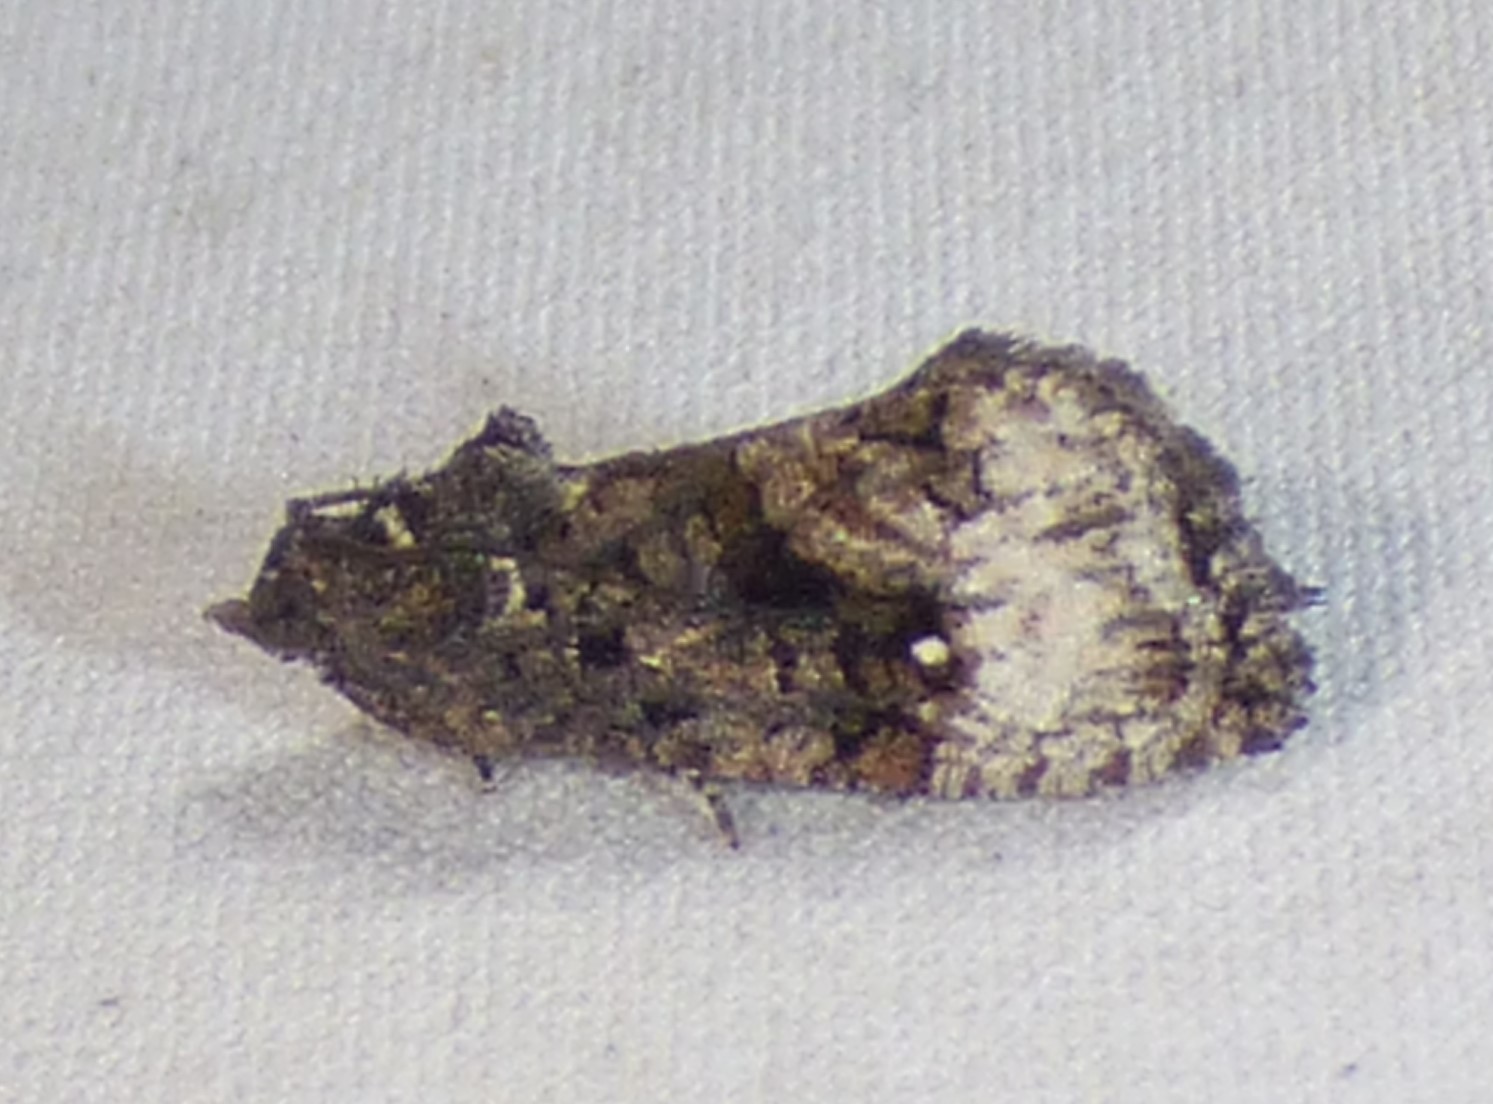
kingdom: Animalia
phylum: Arthropoda
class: Insecta
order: Lepidoptera
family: Tortricidae
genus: Gymnandrosoma
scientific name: Gymnandrosoma punctidiscanum
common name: Dotted ecdytolopha moth
